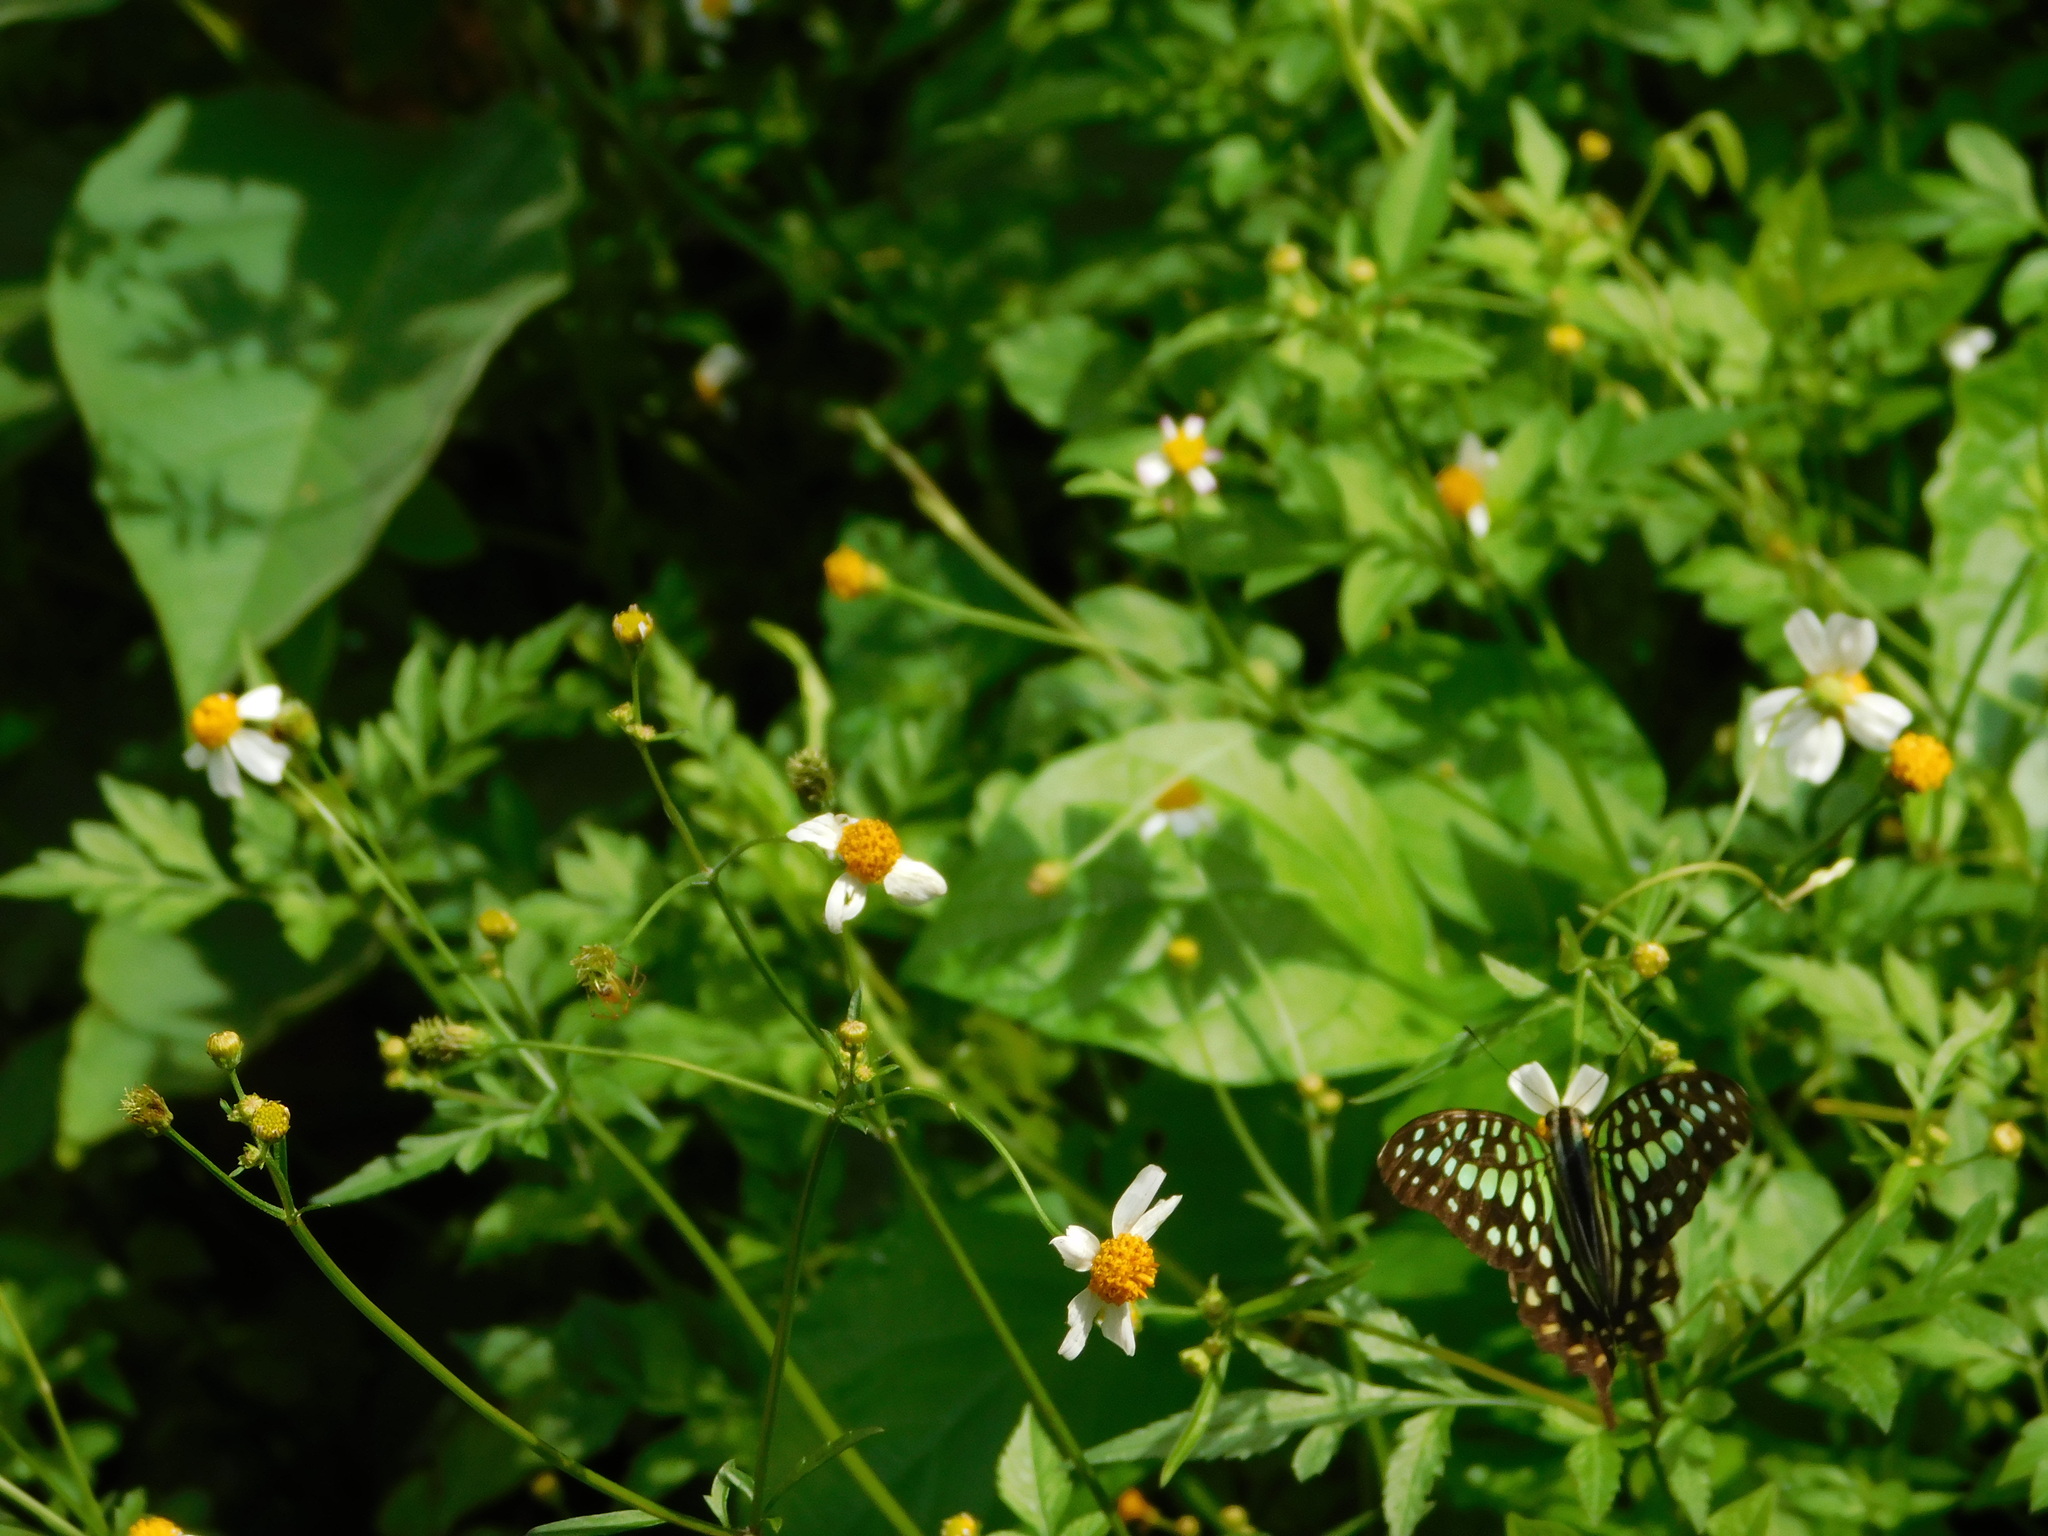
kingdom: Animalia
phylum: Arthropoda
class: Insecta
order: Lepidoptera
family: Papilionidae
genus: Graphium
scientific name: Graphium agamemnon
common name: Tailed jay
